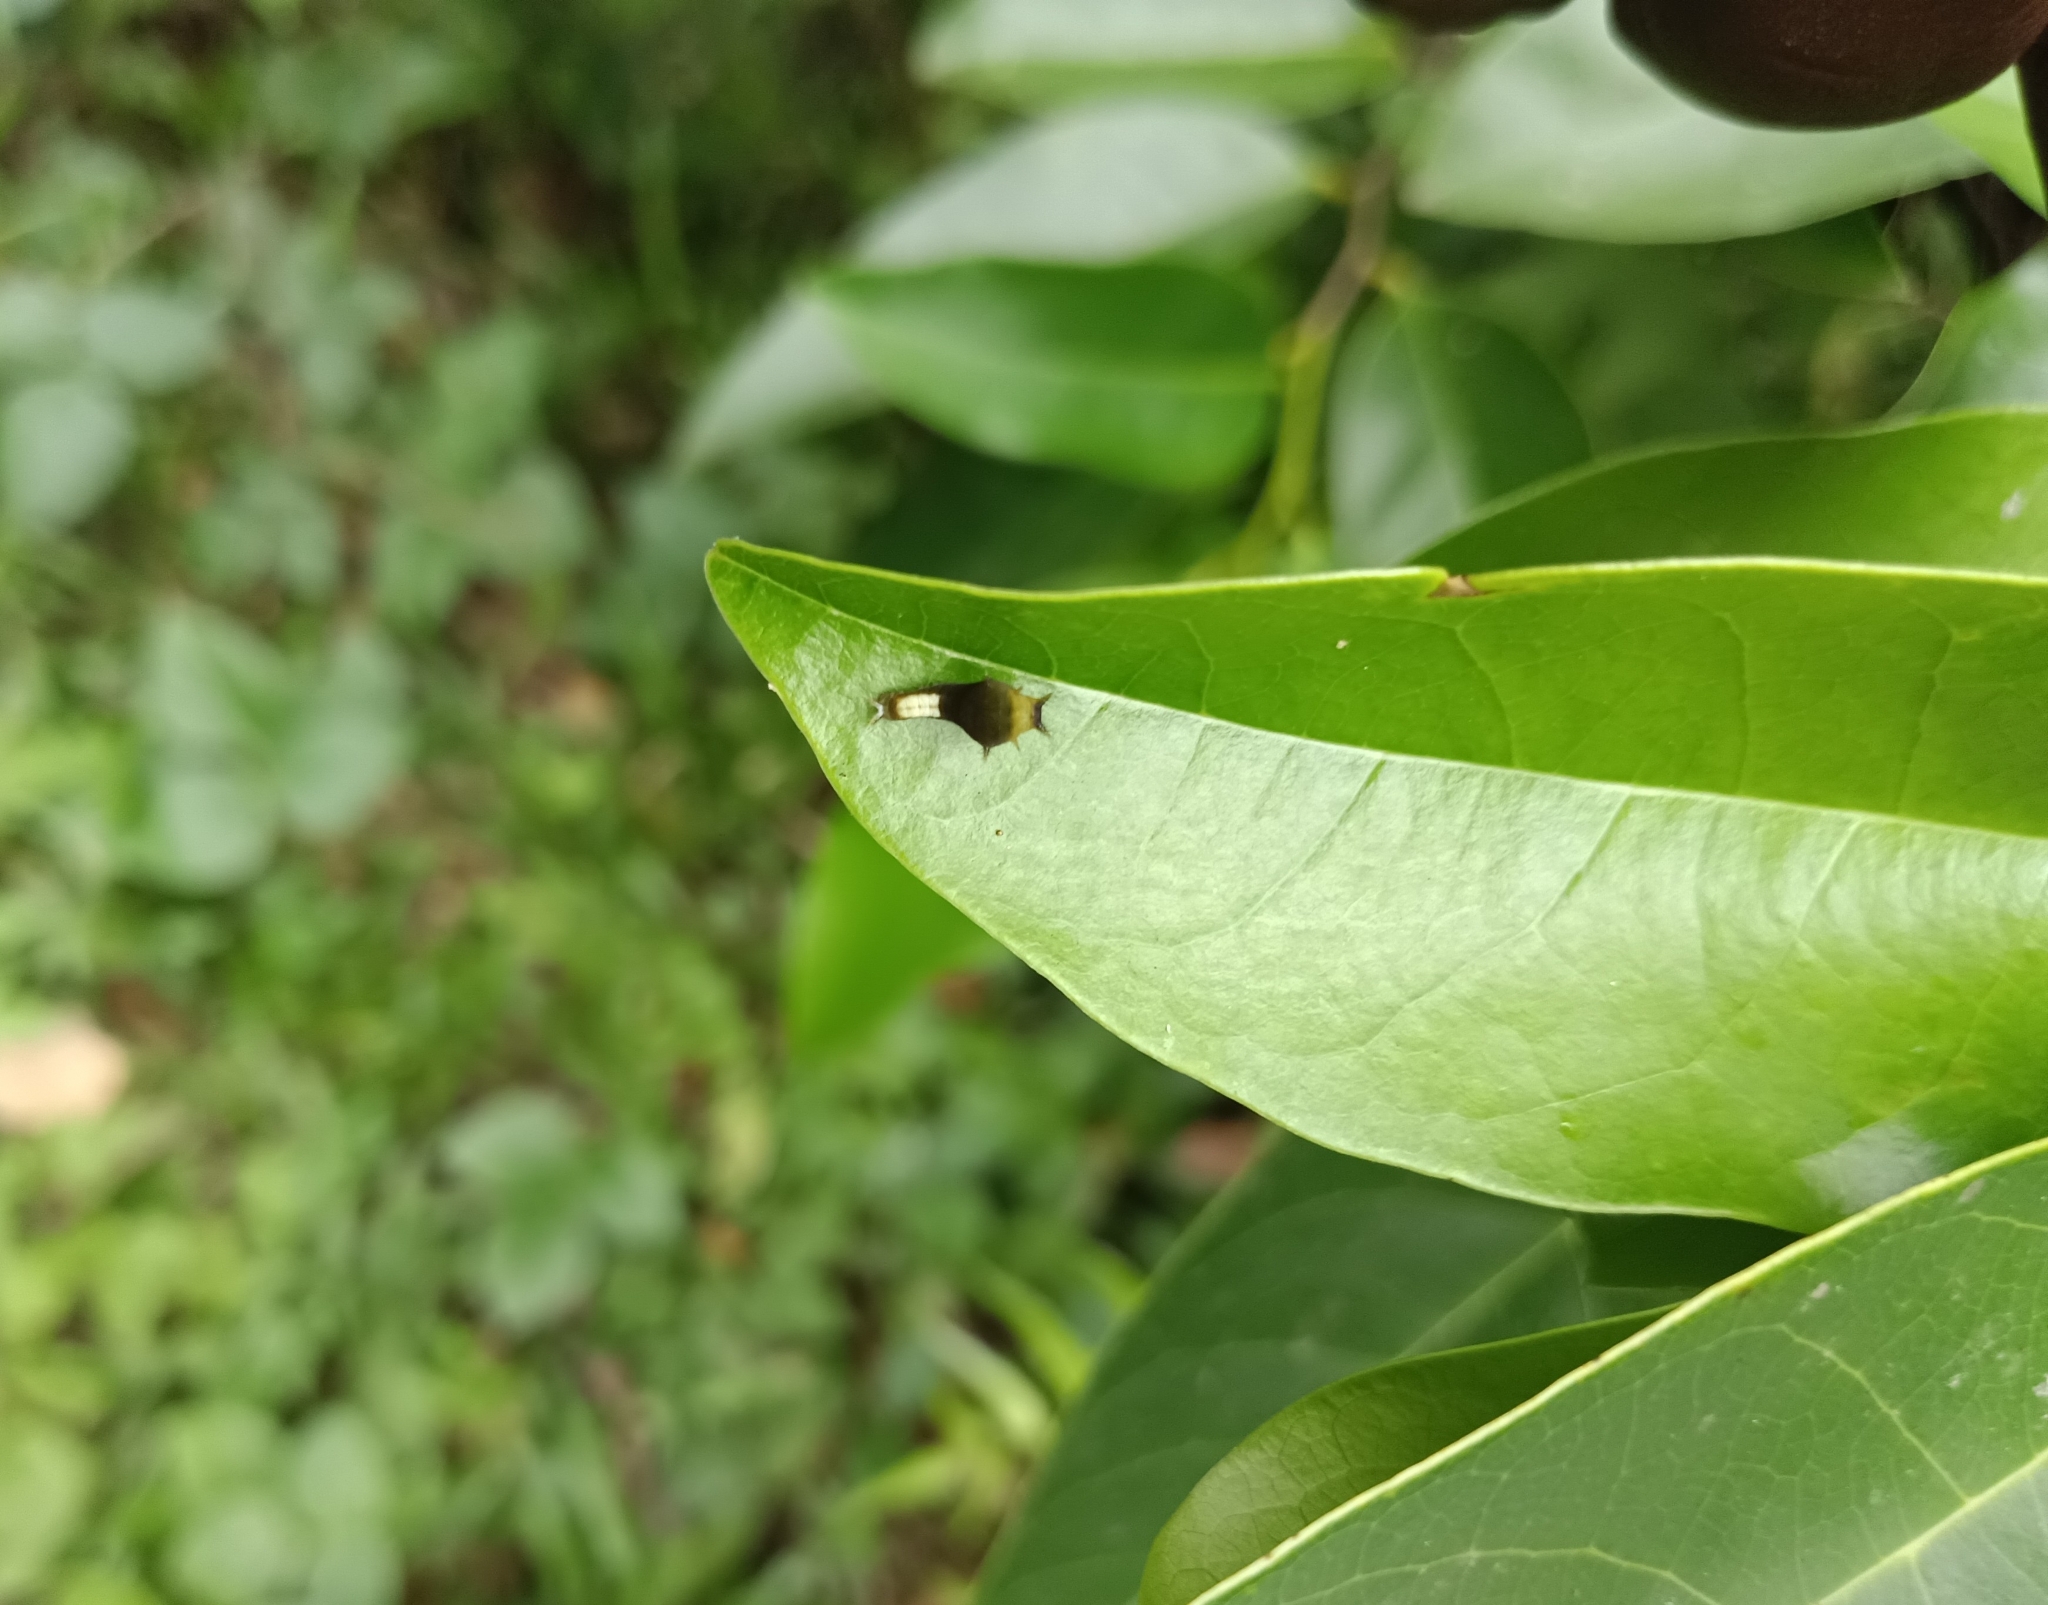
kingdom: Animalia
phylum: Arthropoda
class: Insecta
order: Lepidoptera
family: Papilionidae
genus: Graphium
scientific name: Graphium agamemnon
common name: Tailed jay
